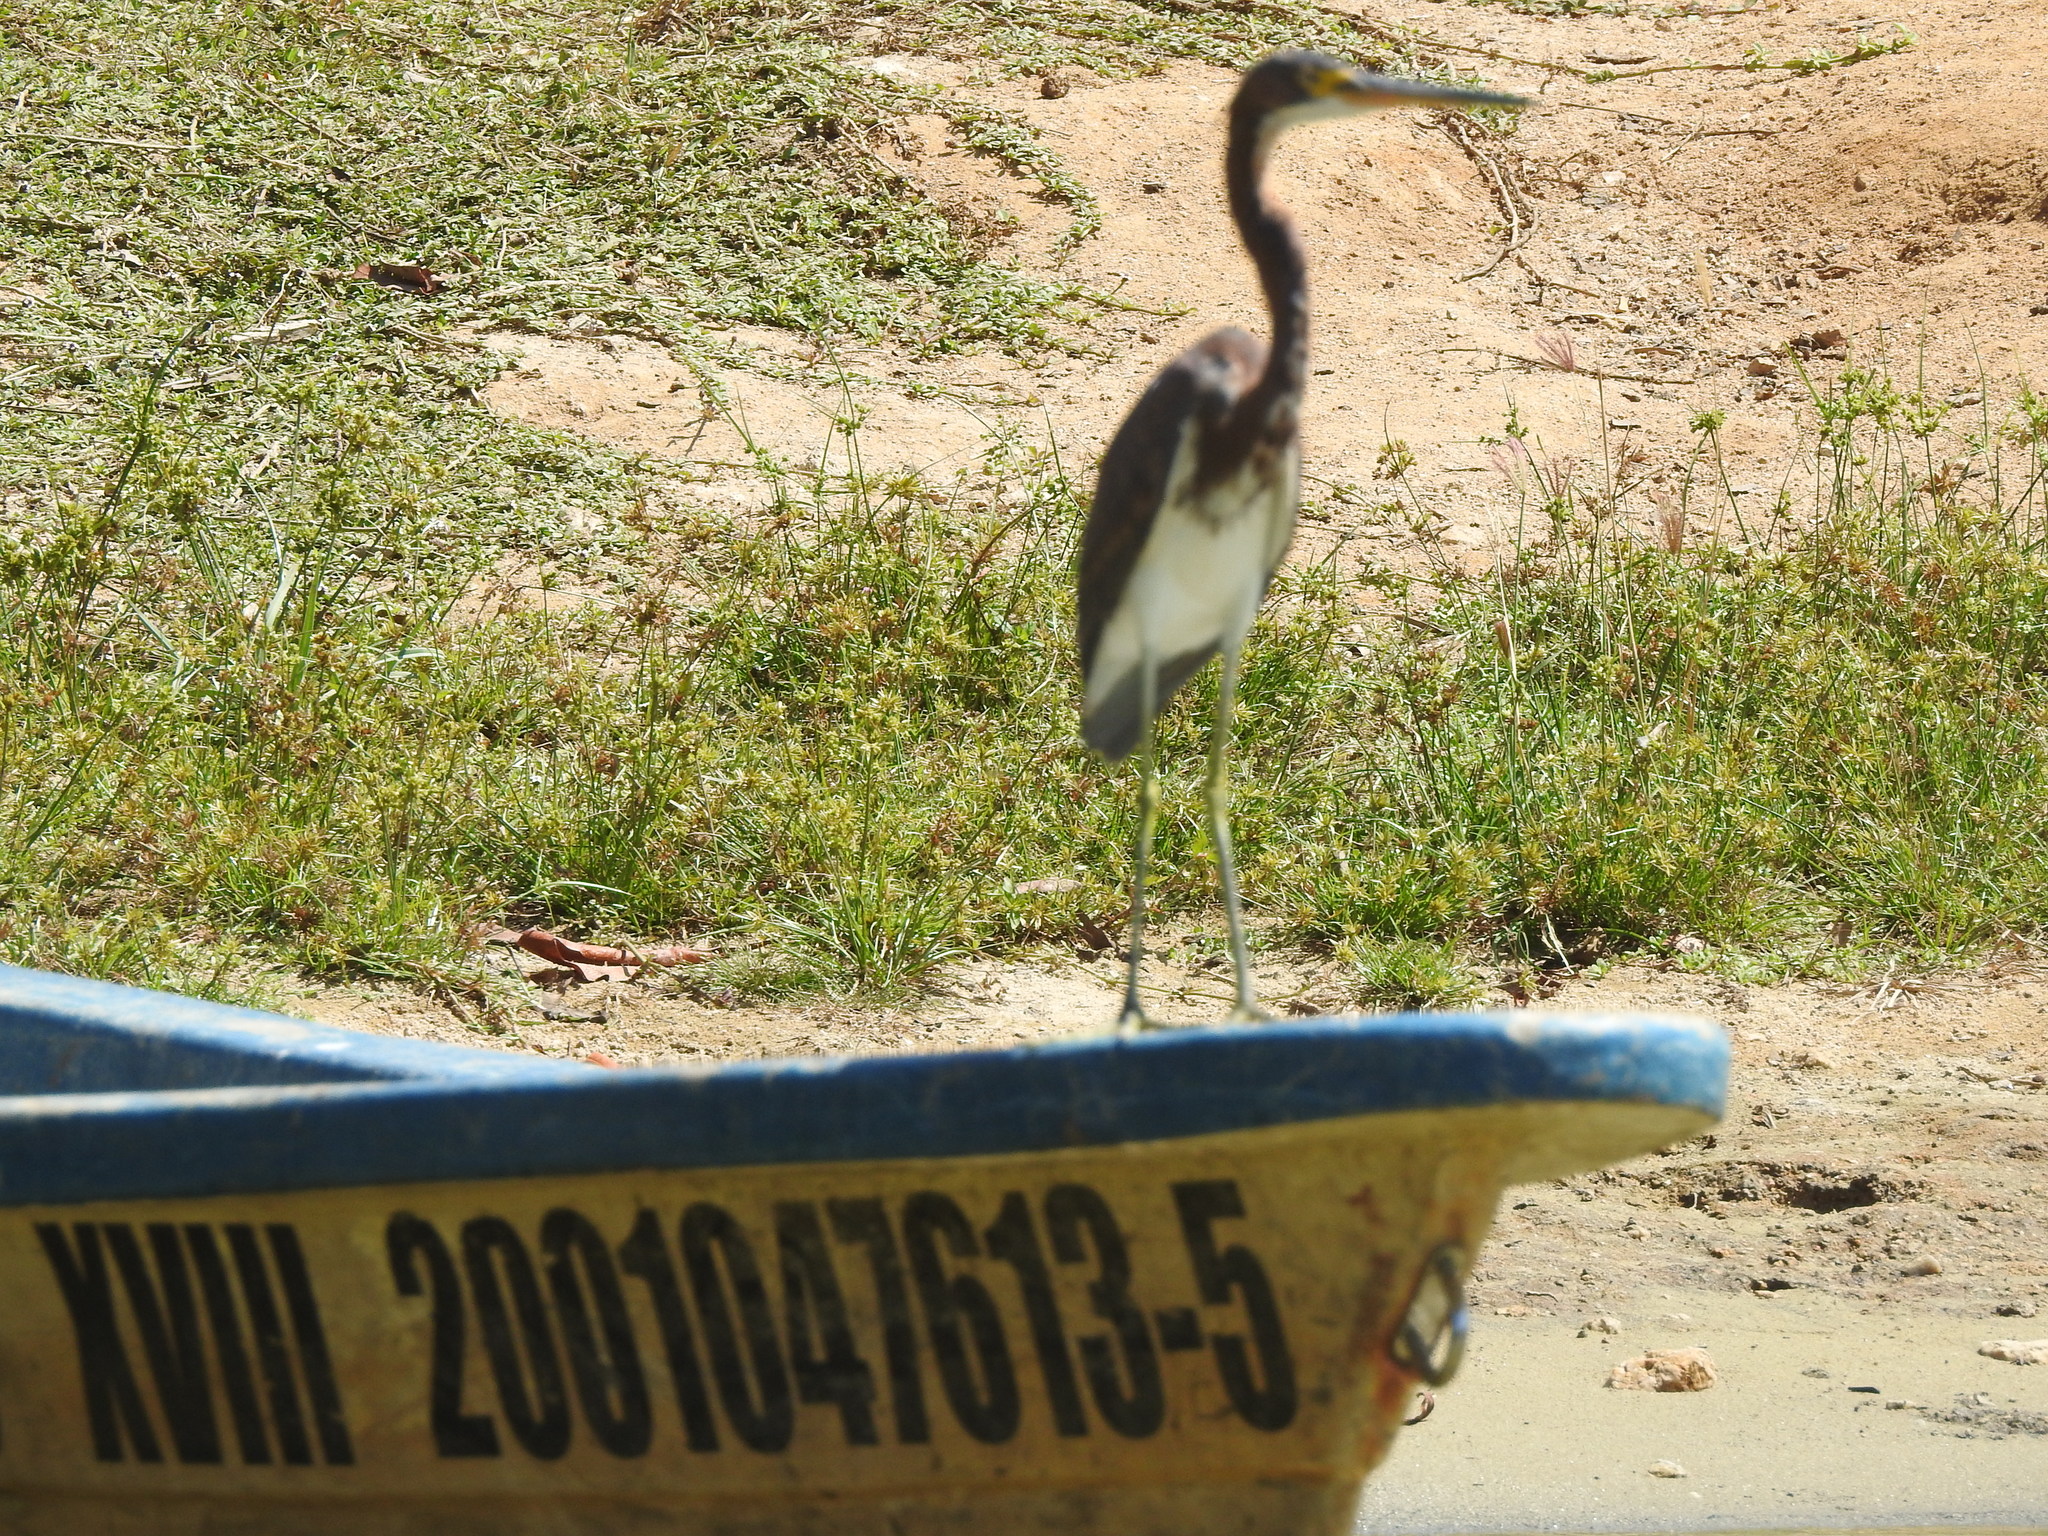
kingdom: Animalia
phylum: Chordata
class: Aves
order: Pelecaniformes
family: Ardeidae
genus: Egretta
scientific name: Egretta tricolor
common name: Tricolored heron
